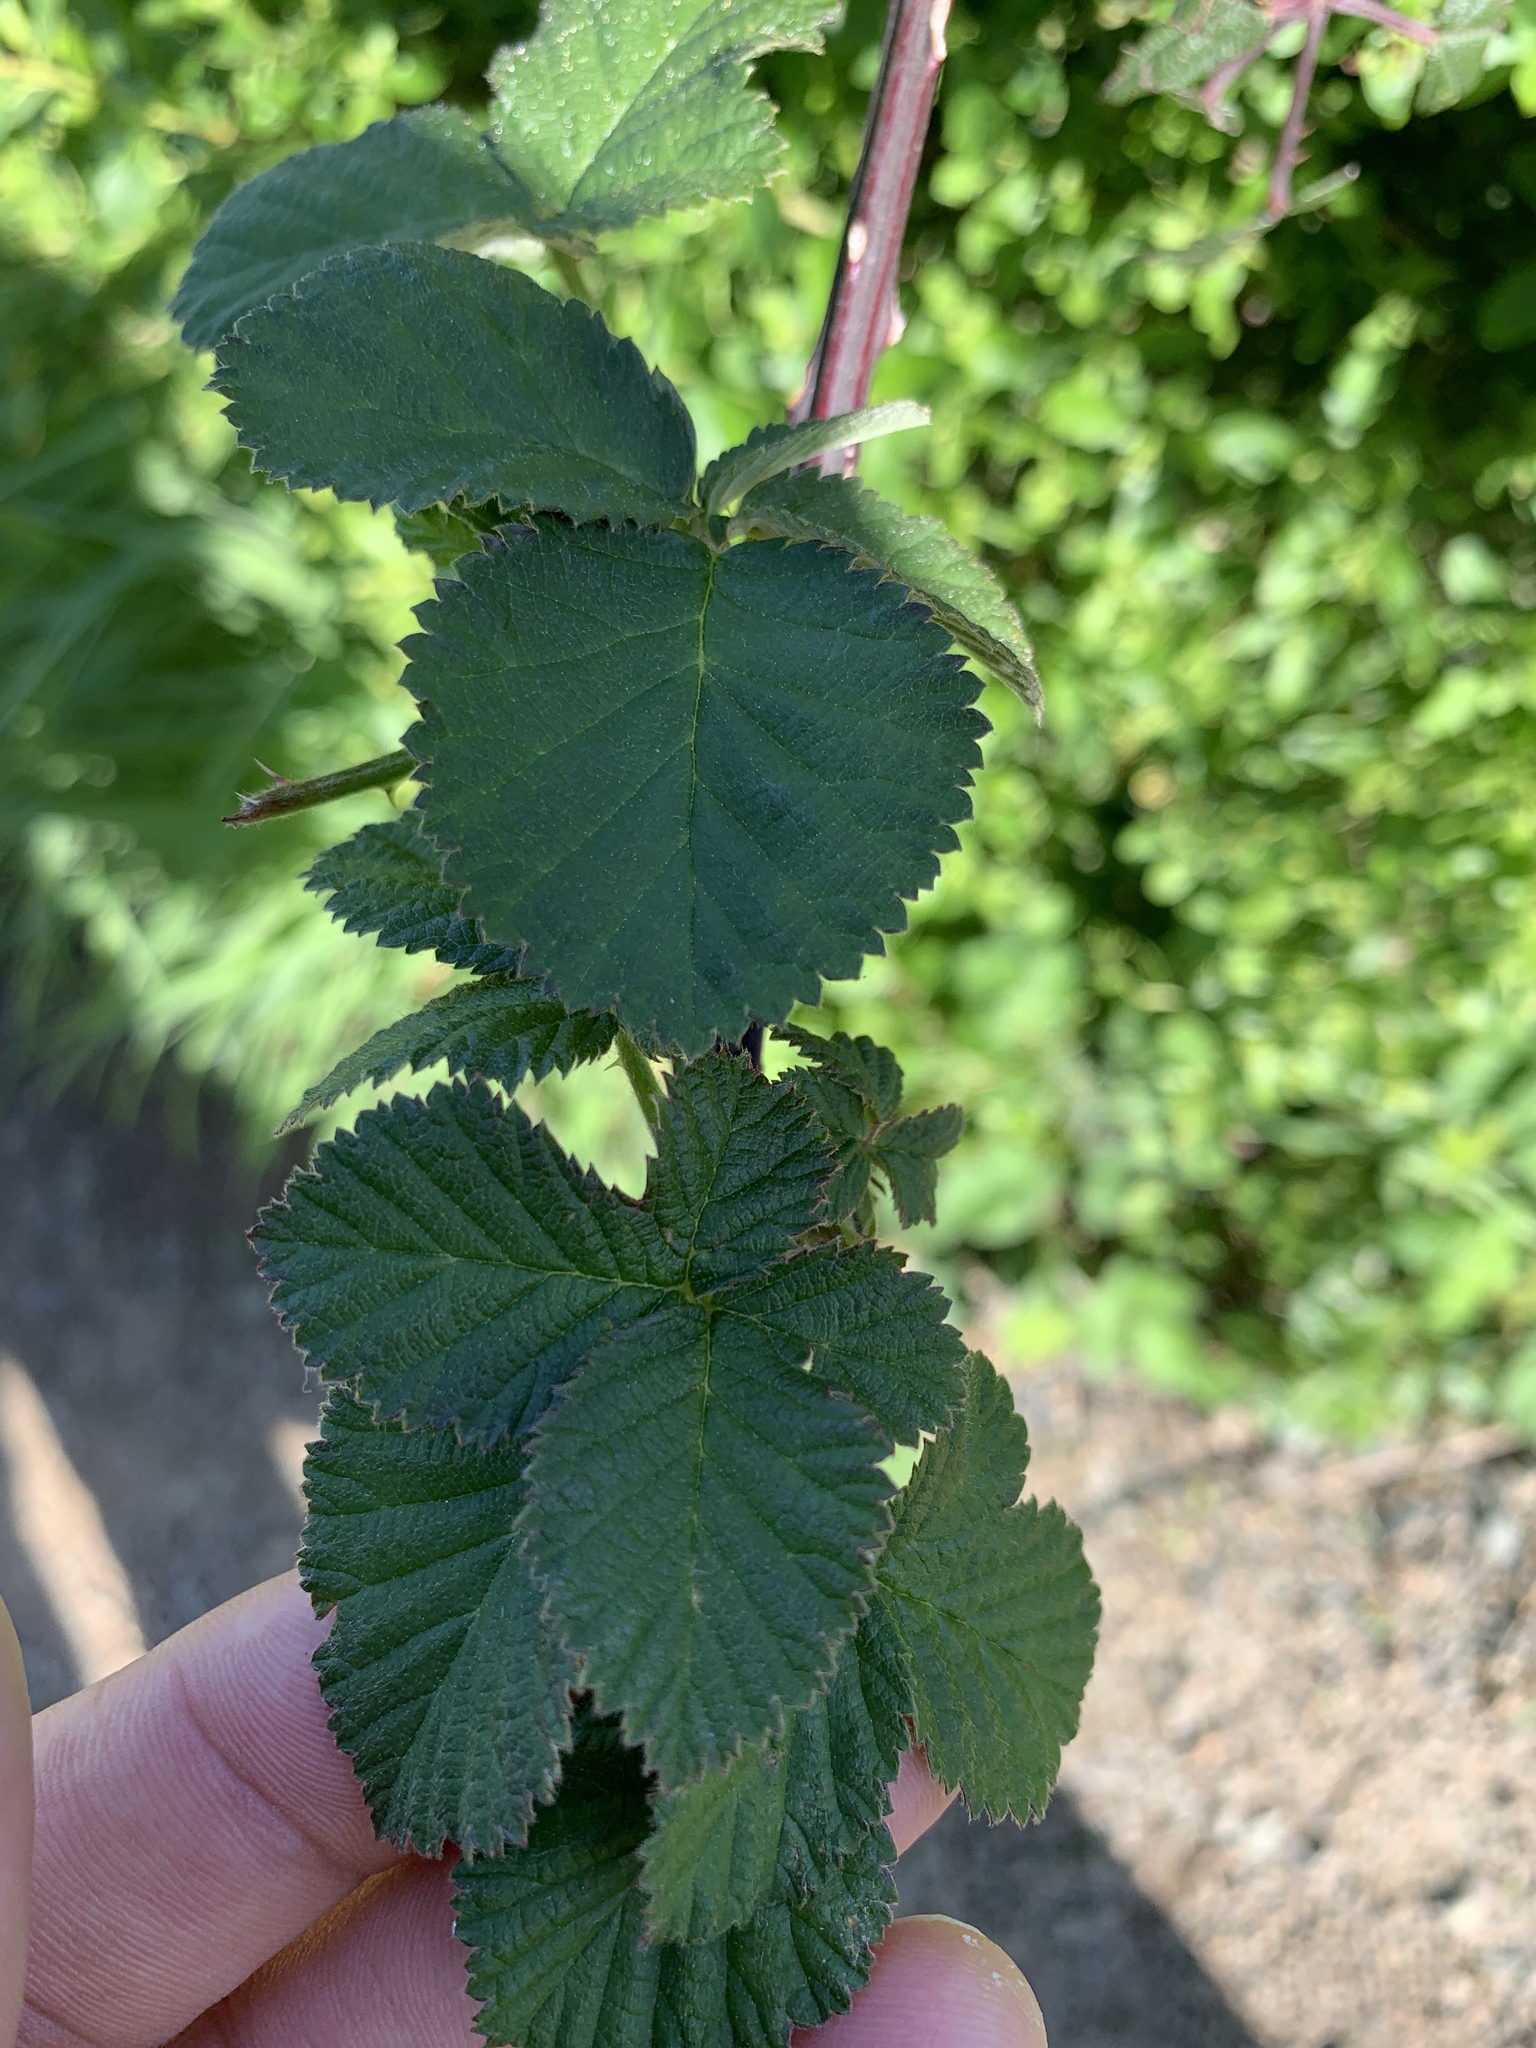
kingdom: Plantae
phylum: Tracheophyta
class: Magnoliopsida
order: Rosales
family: Rosaceae
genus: Rubus
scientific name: Rubus armeniacus
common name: Himalayan blackberry
